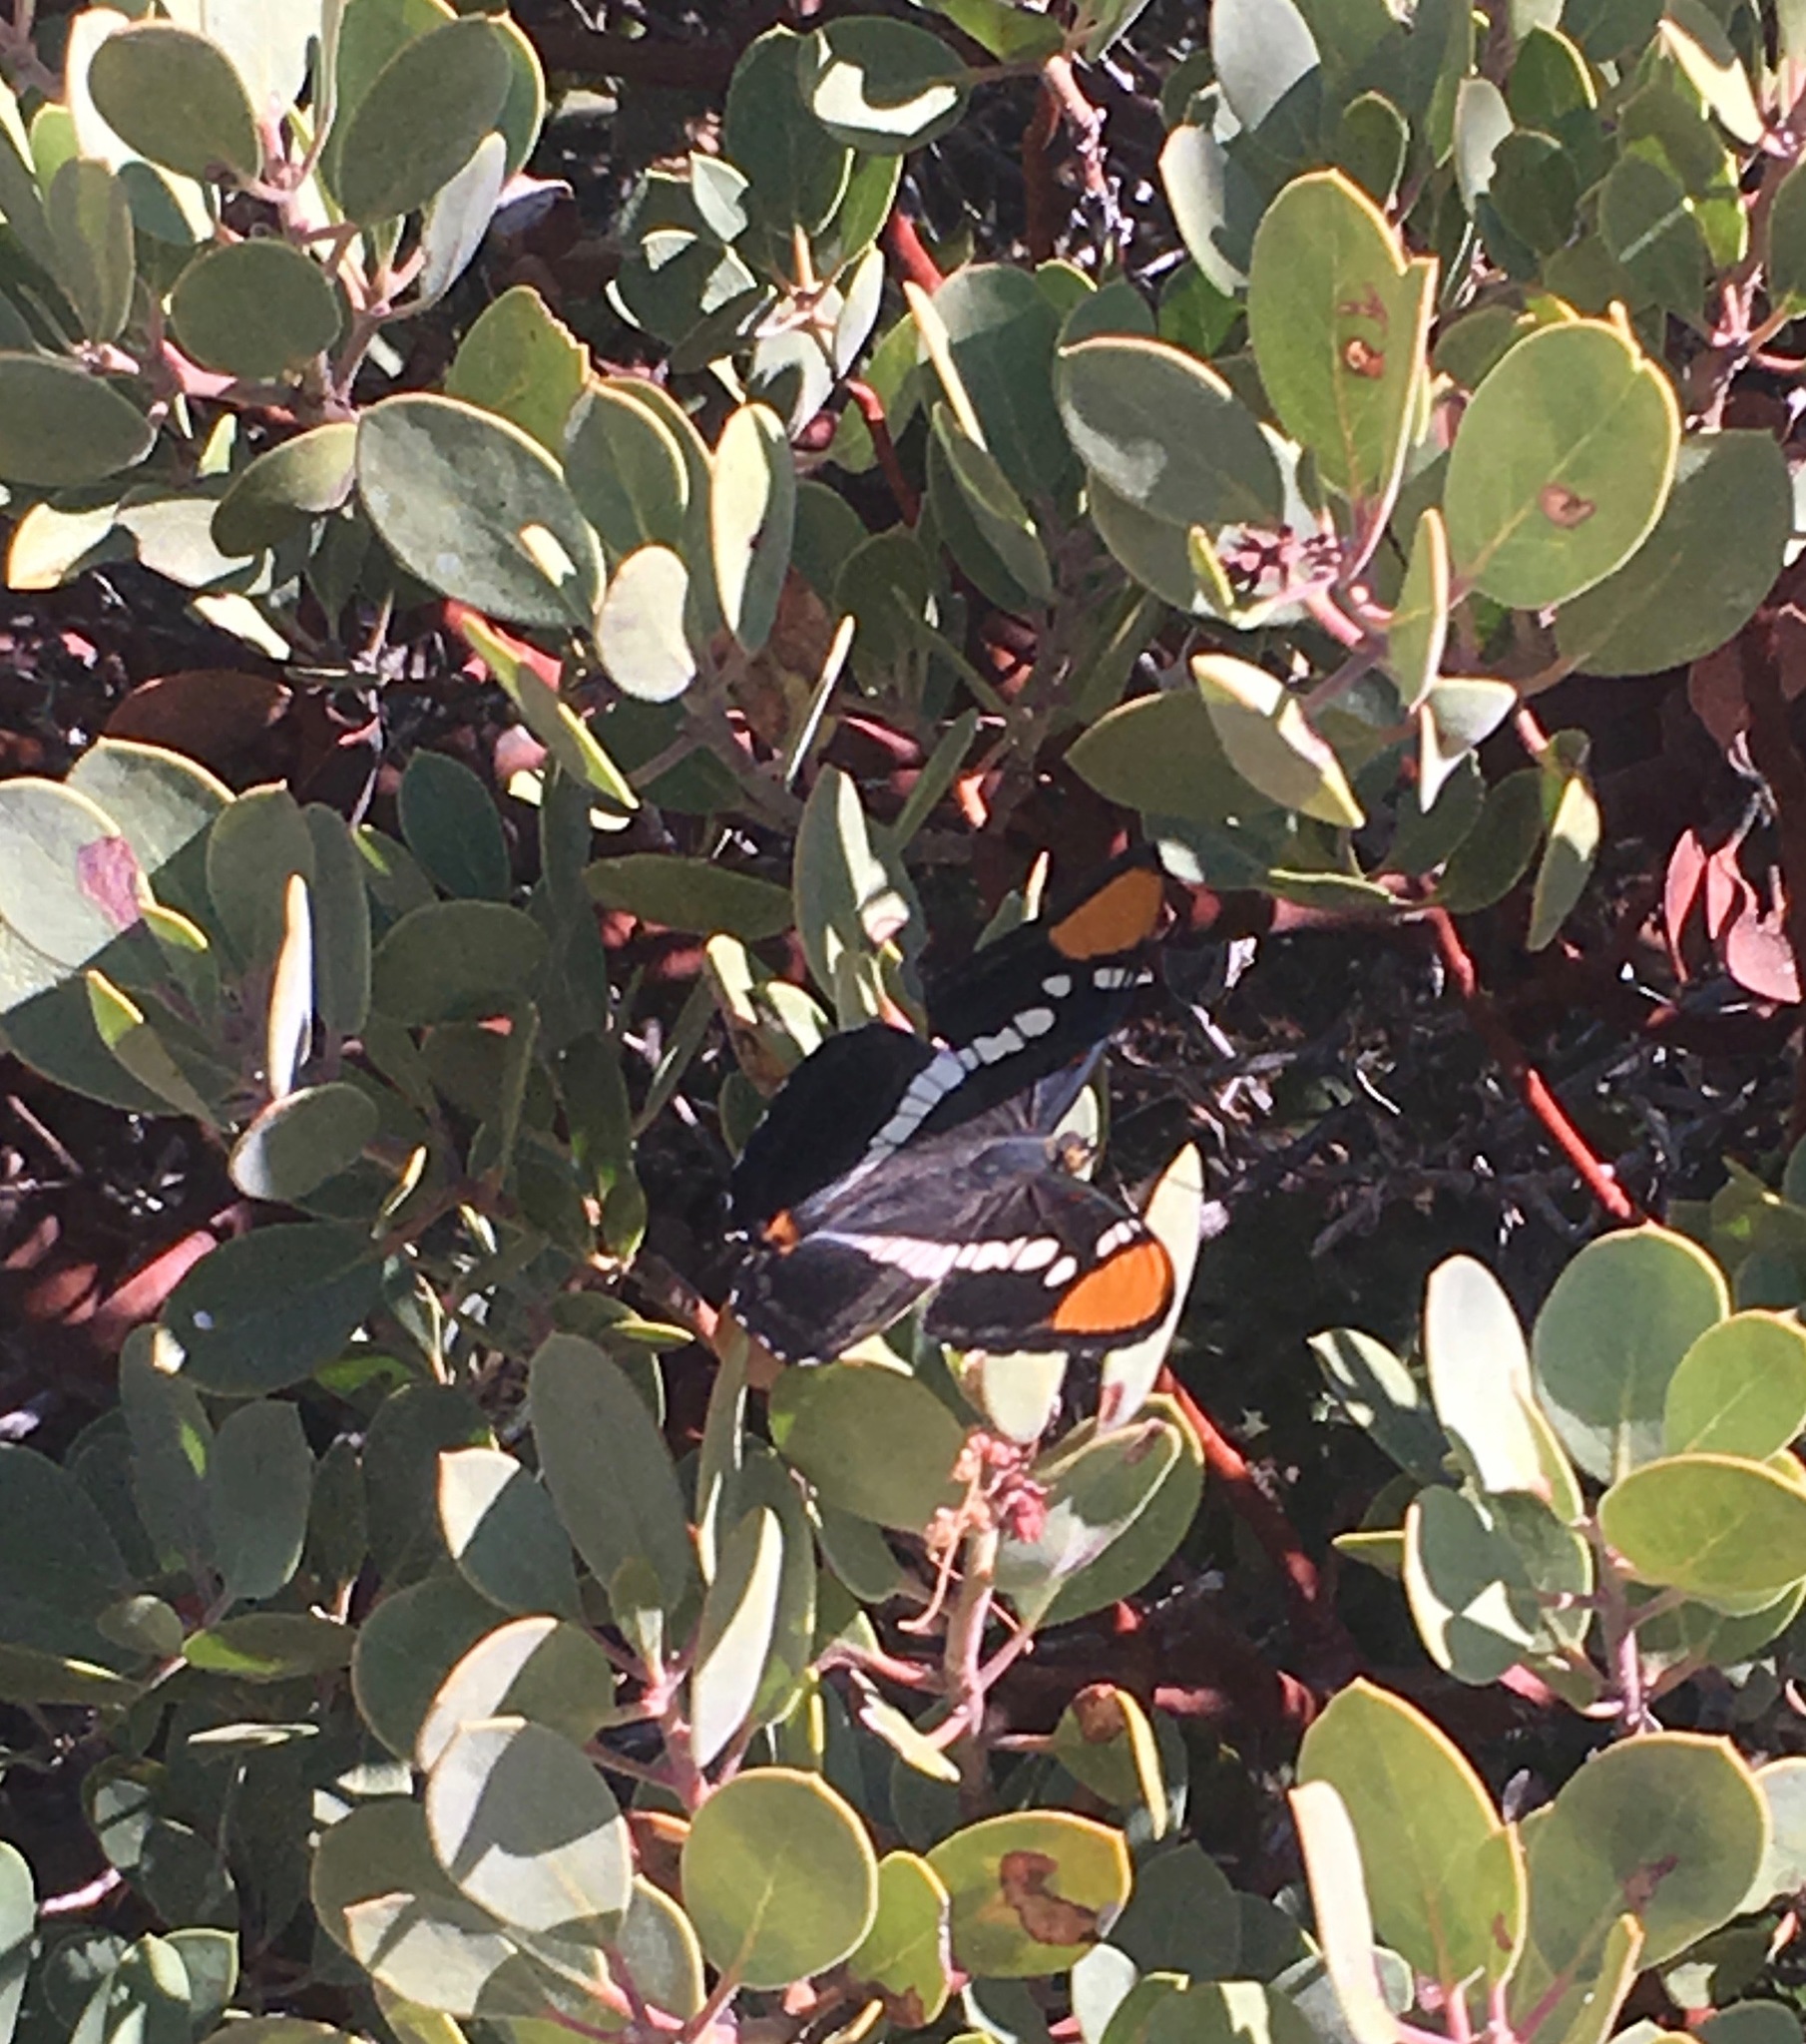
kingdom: Plantae
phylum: Tracheophyta
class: Magnoliopsida
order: Ericales
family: Ericaceae
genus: Arctostaphylos
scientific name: Arctostaphylos glauca
